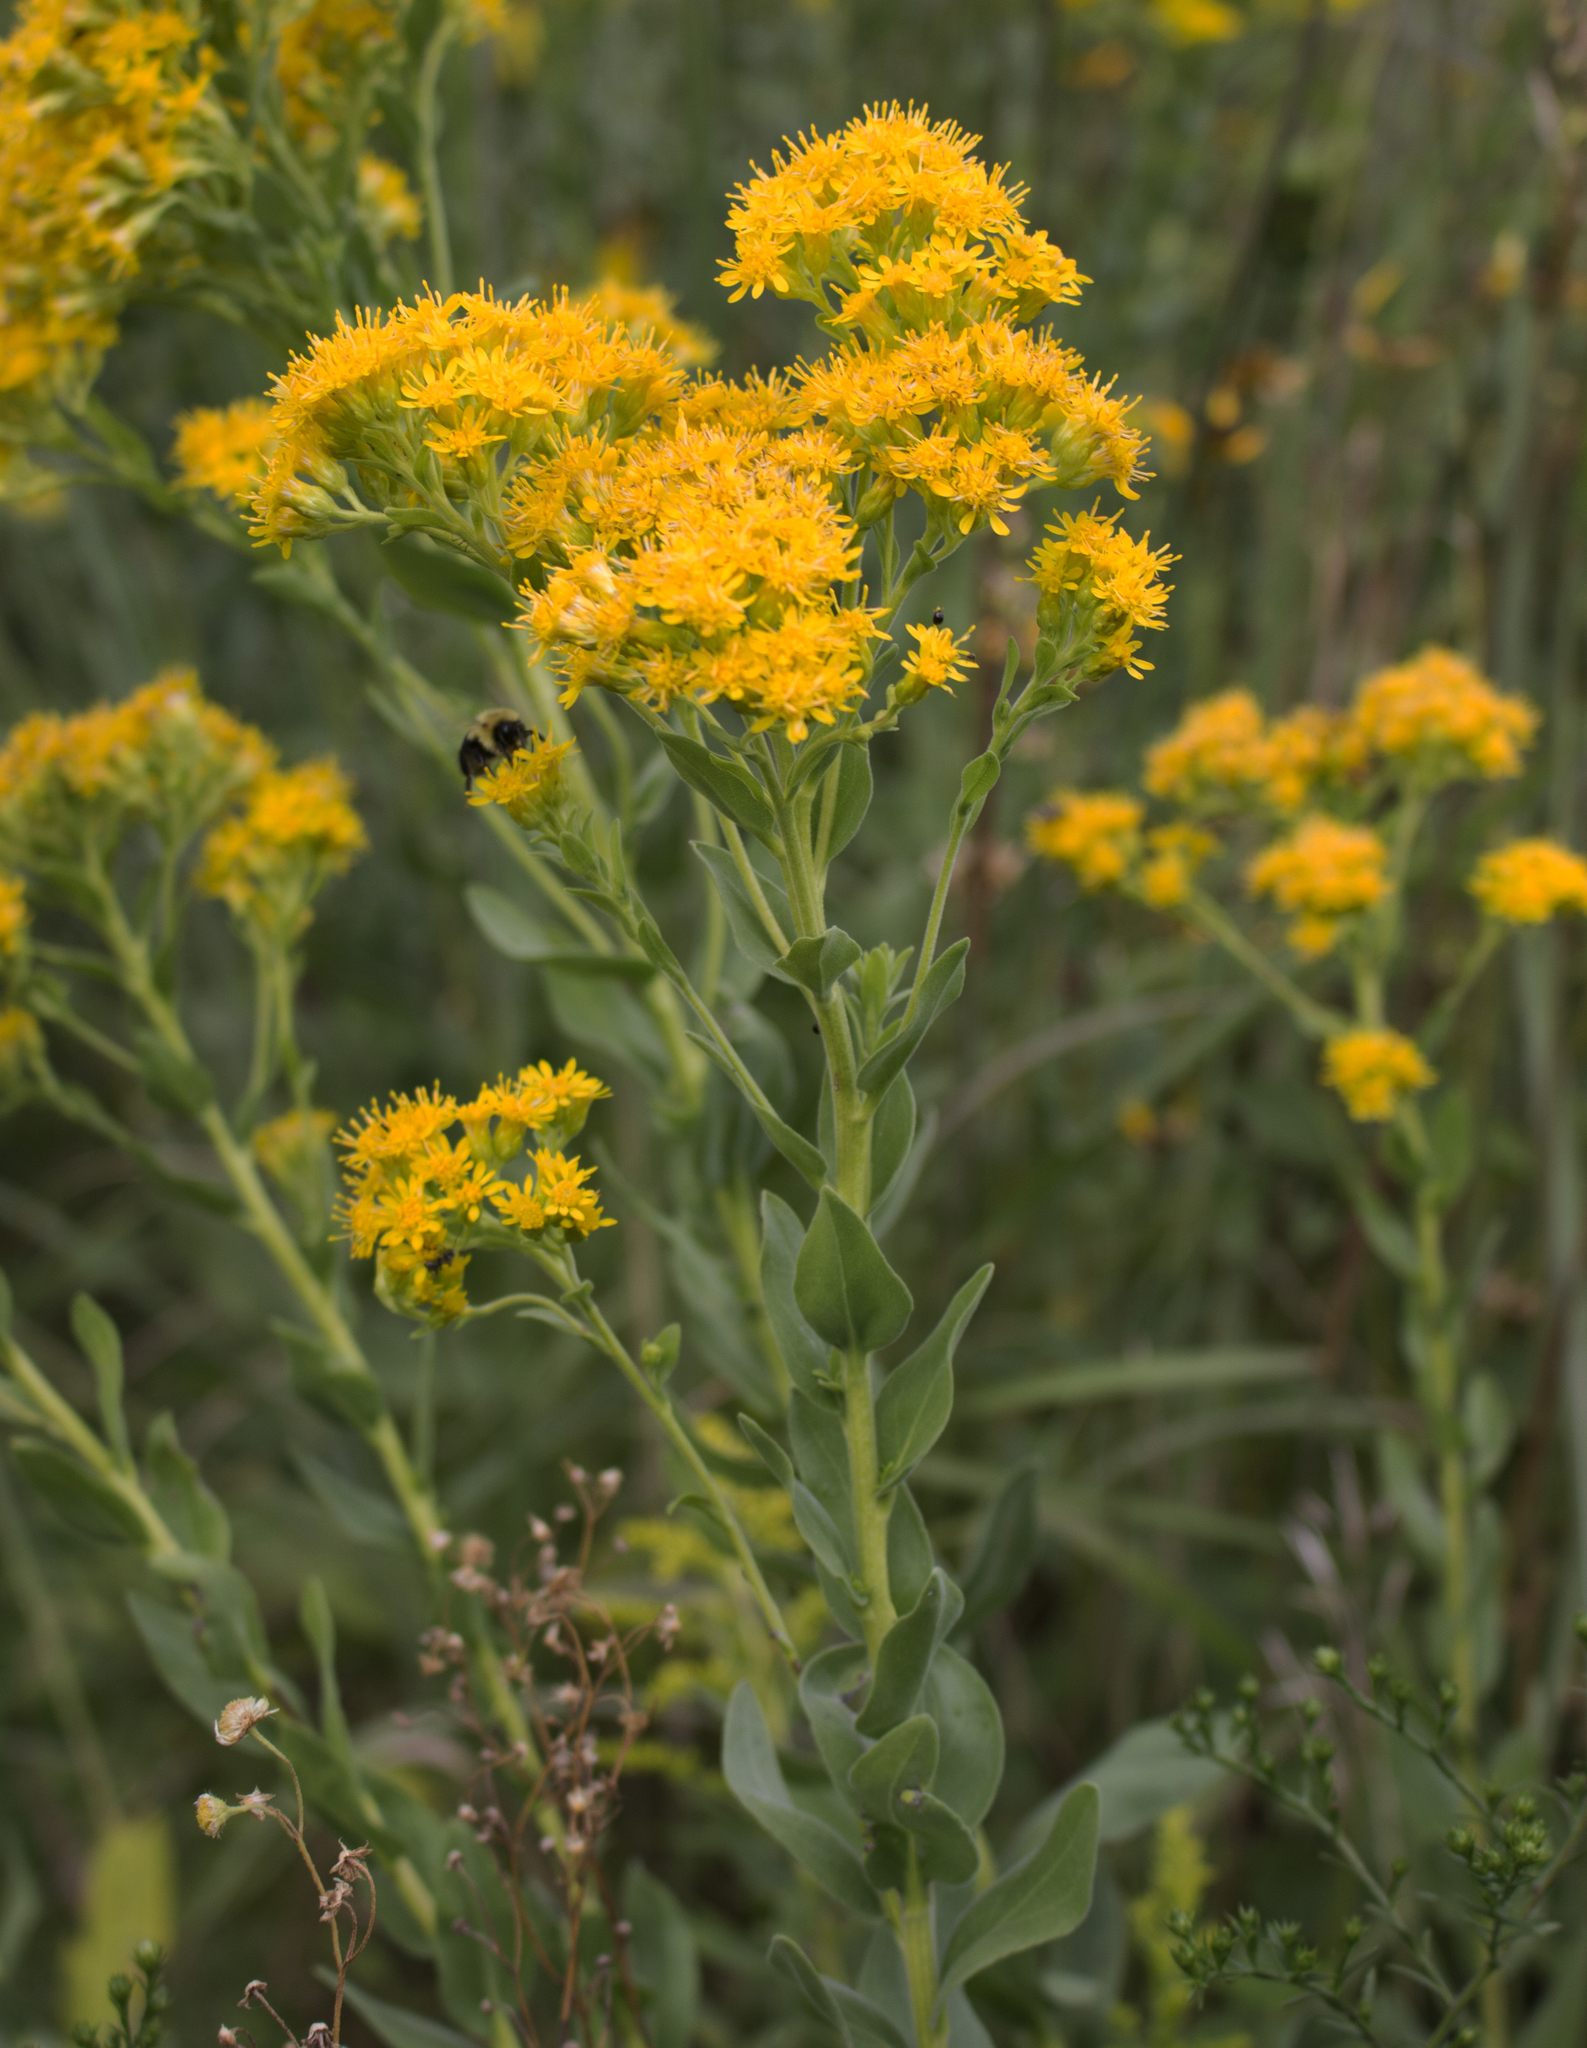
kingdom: Plantae
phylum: Tracheophyta
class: Magnoliopsida
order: Asterales
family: Asteraceae
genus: Solidago
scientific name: Solidago rigida
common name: Rigid goldenrod
